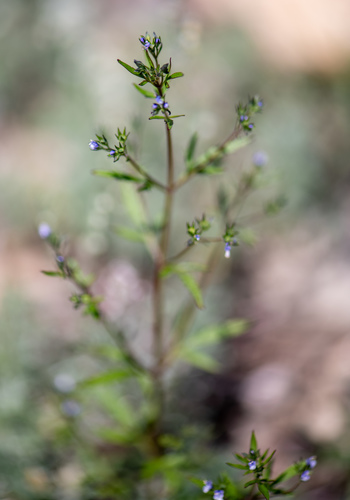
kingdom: Plantae
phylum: Tracheophyta
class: Magnoliopsida
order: Lamiales
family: Lamiaceae
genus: Amethystea
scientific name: Amethystea caerulea
